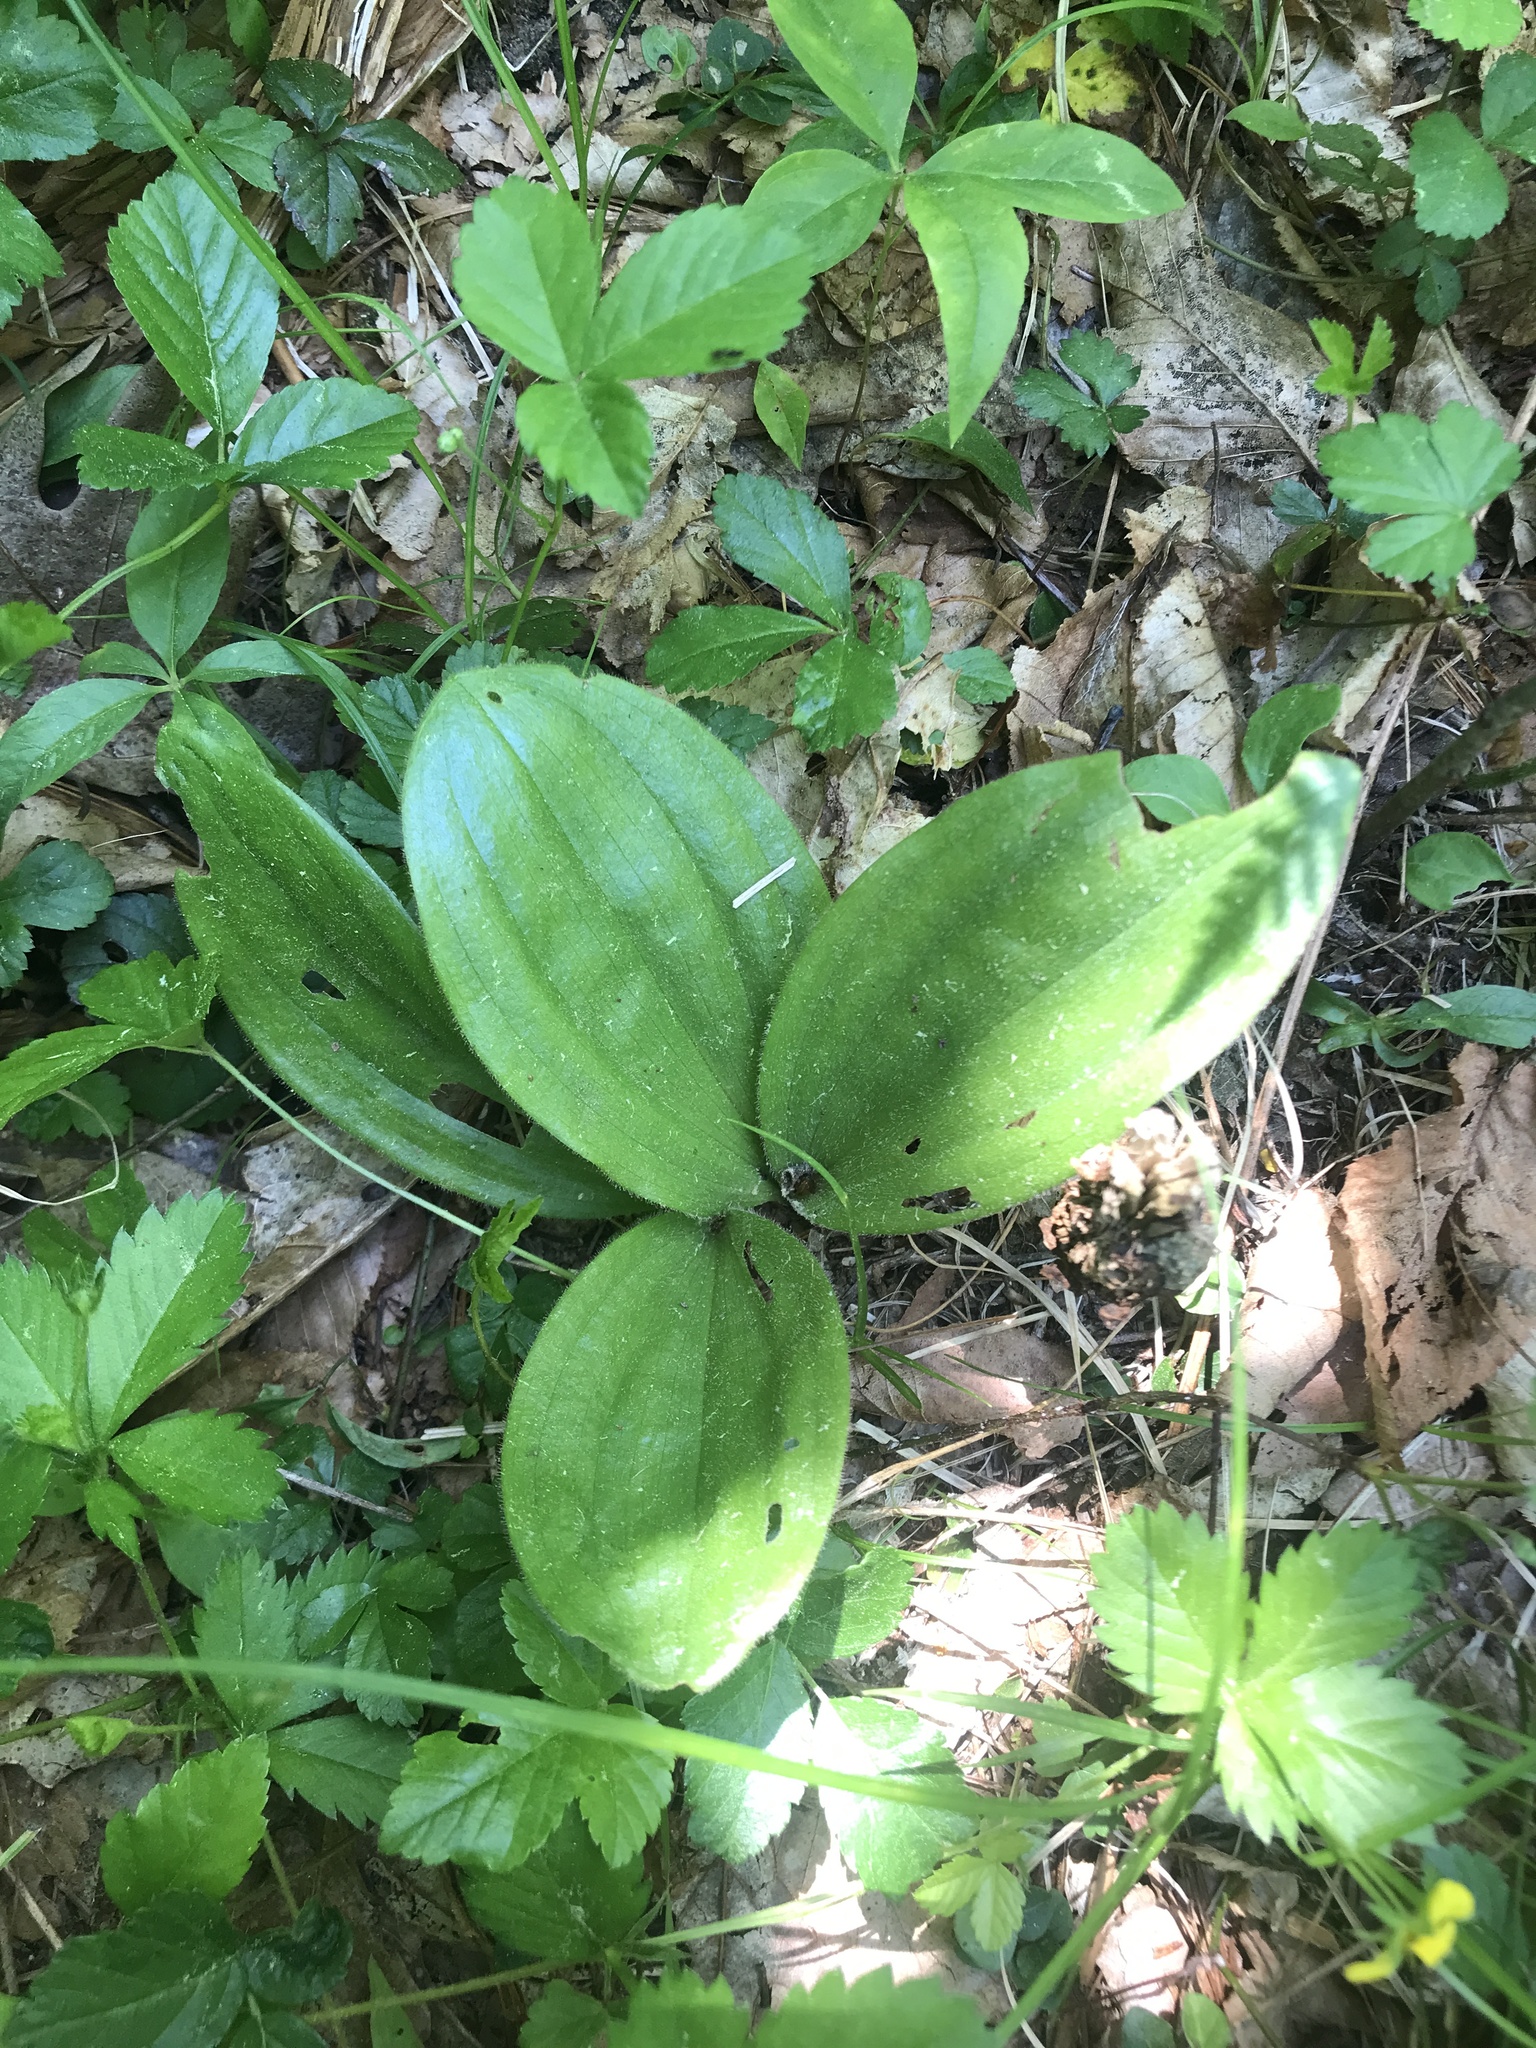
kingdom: Plantae
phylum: Tracheophyta
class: Liliopsida
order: Asparagales
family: Orchidaceae
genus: Cypripedium
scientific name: Cypripedium acaule
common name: Pink lady's-slipper
